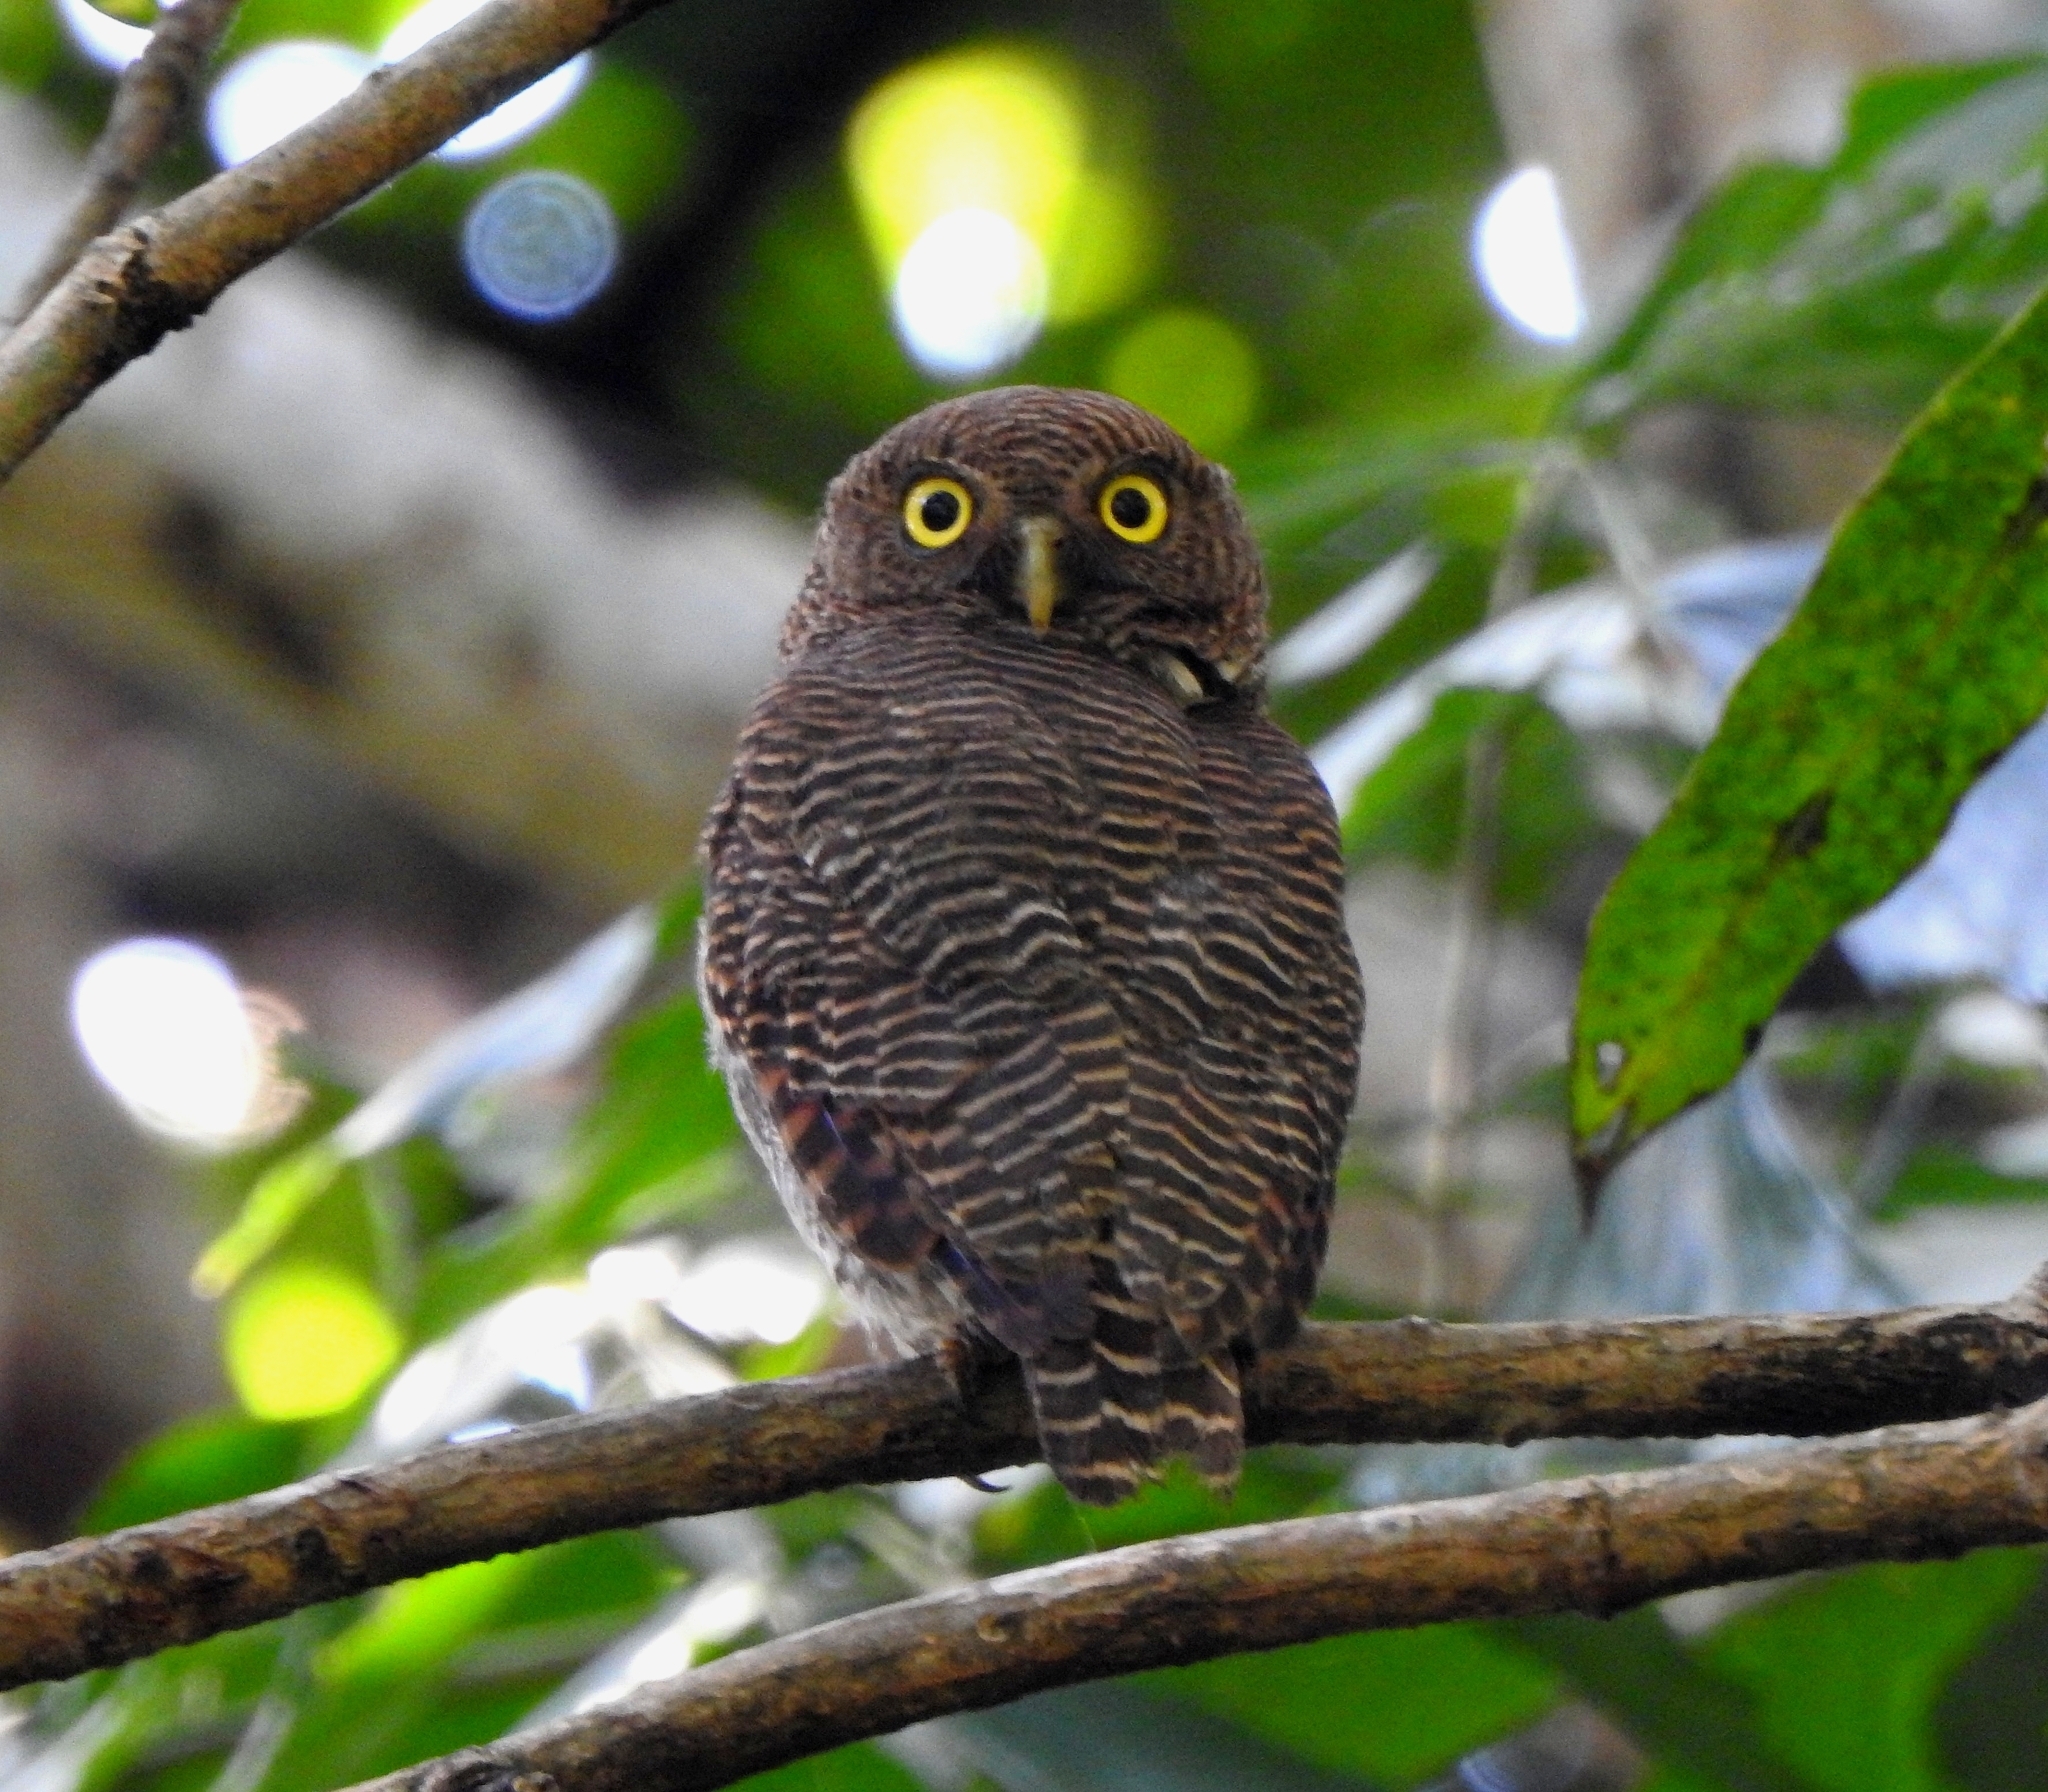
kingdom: Animalia
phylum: Chordata
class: Aves
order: Strigiformes
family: Strigidae
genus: Glaucidium
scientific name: Glaucidium radiatum
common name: Jungle owlet
